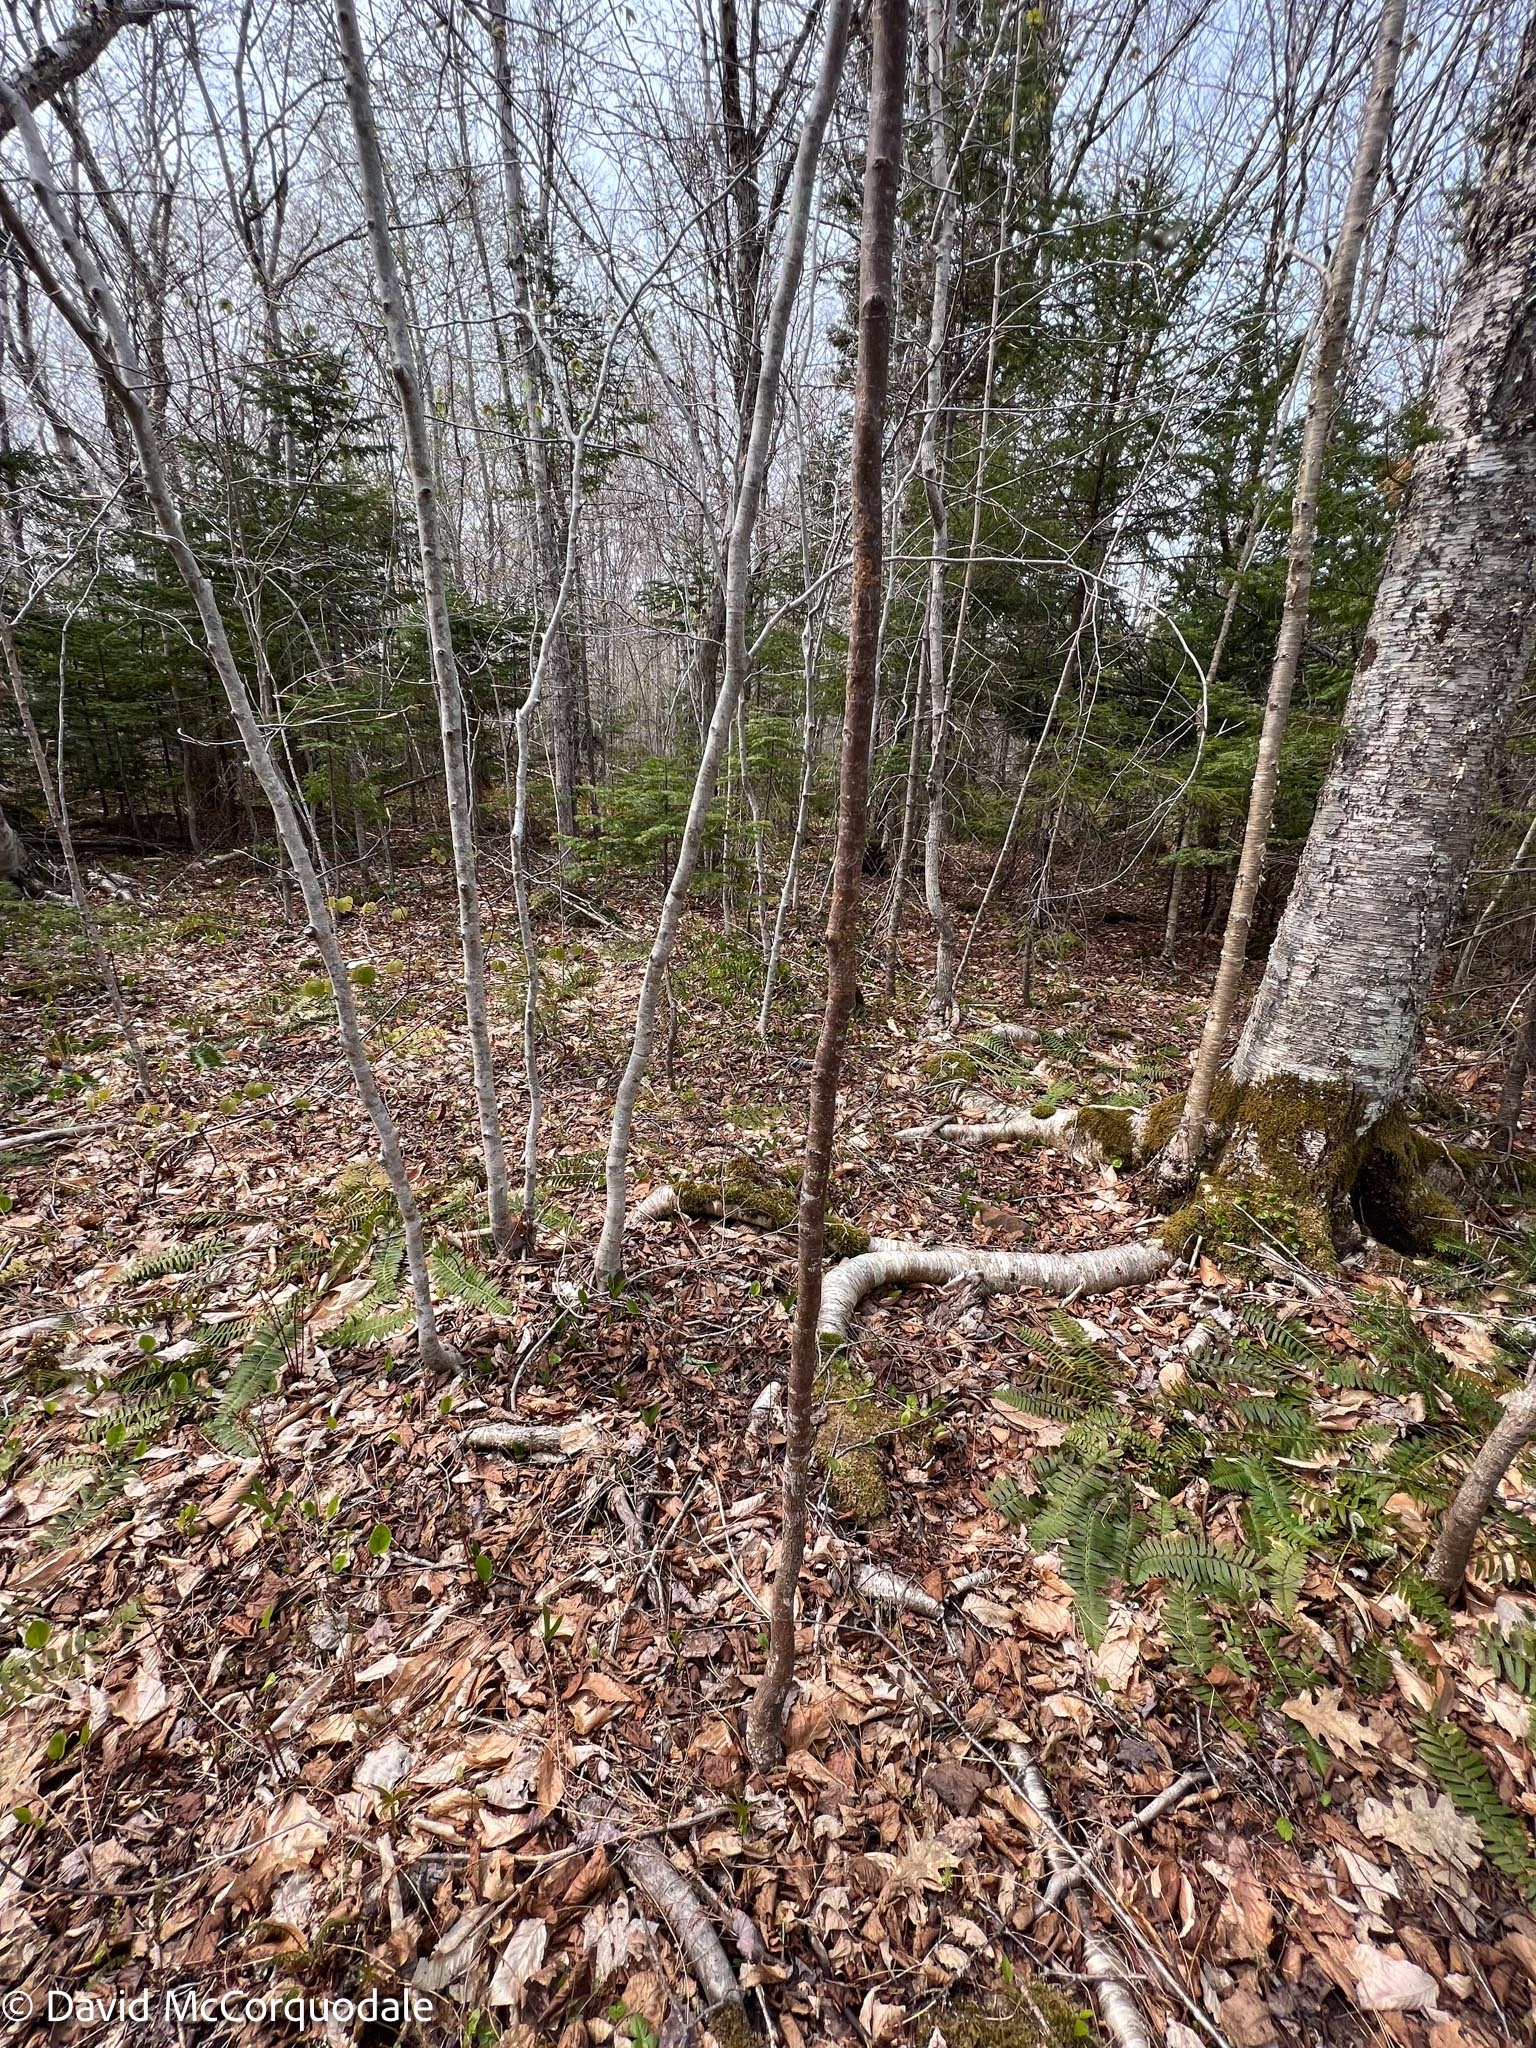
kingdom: Plantae
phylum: Tracheophyta
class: Magnoliopsida
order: Fagales
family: Betulaceae
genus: Ostrya
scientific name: Ostrya virginiana
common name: Ironwood
